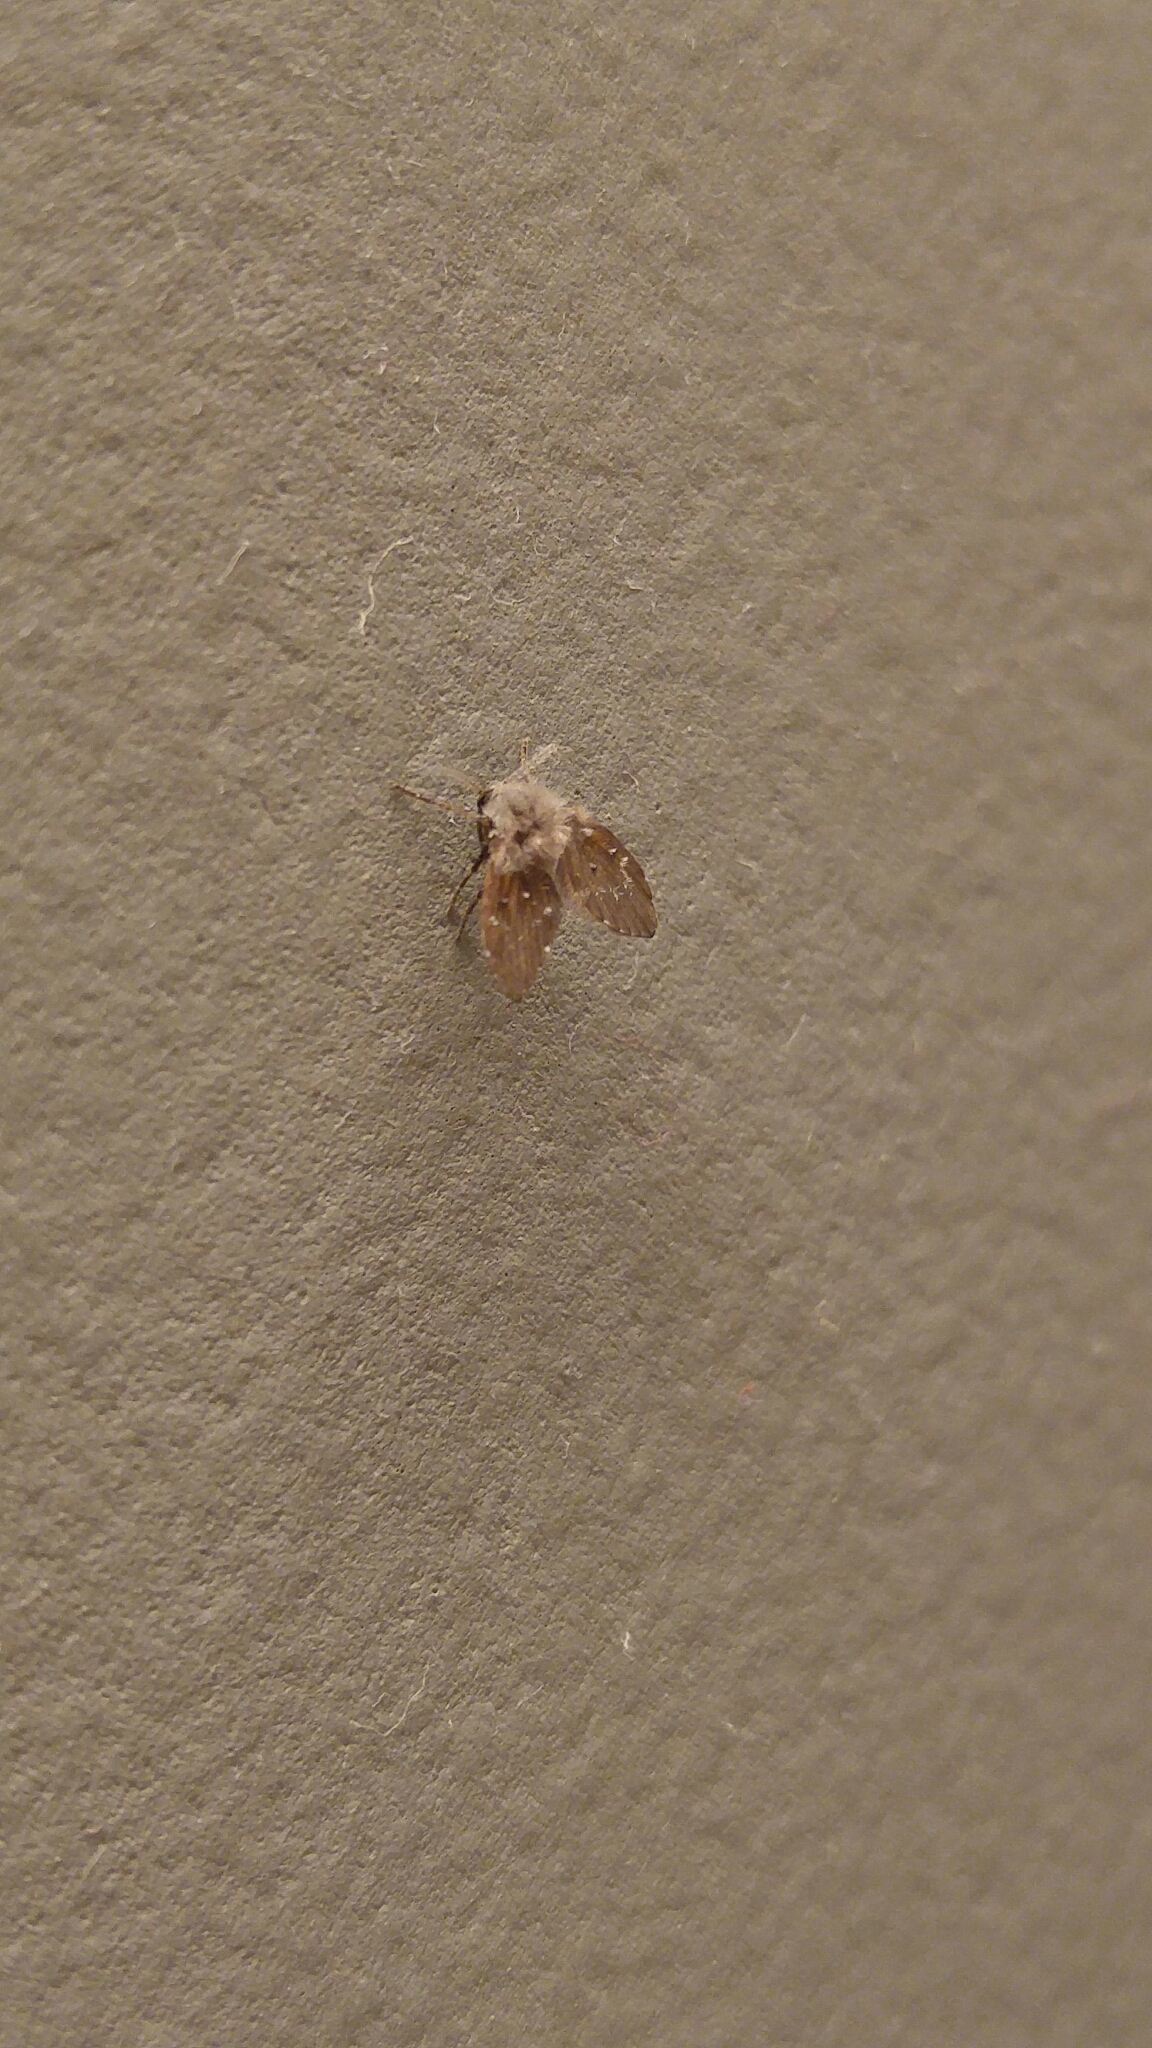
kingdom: Animalia
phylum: Arthropoda
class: Insecta
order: Diptera
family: Psychodidae
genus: Clogmia
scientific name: Clogmia albipunctatus
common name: White-spotted moth fly
